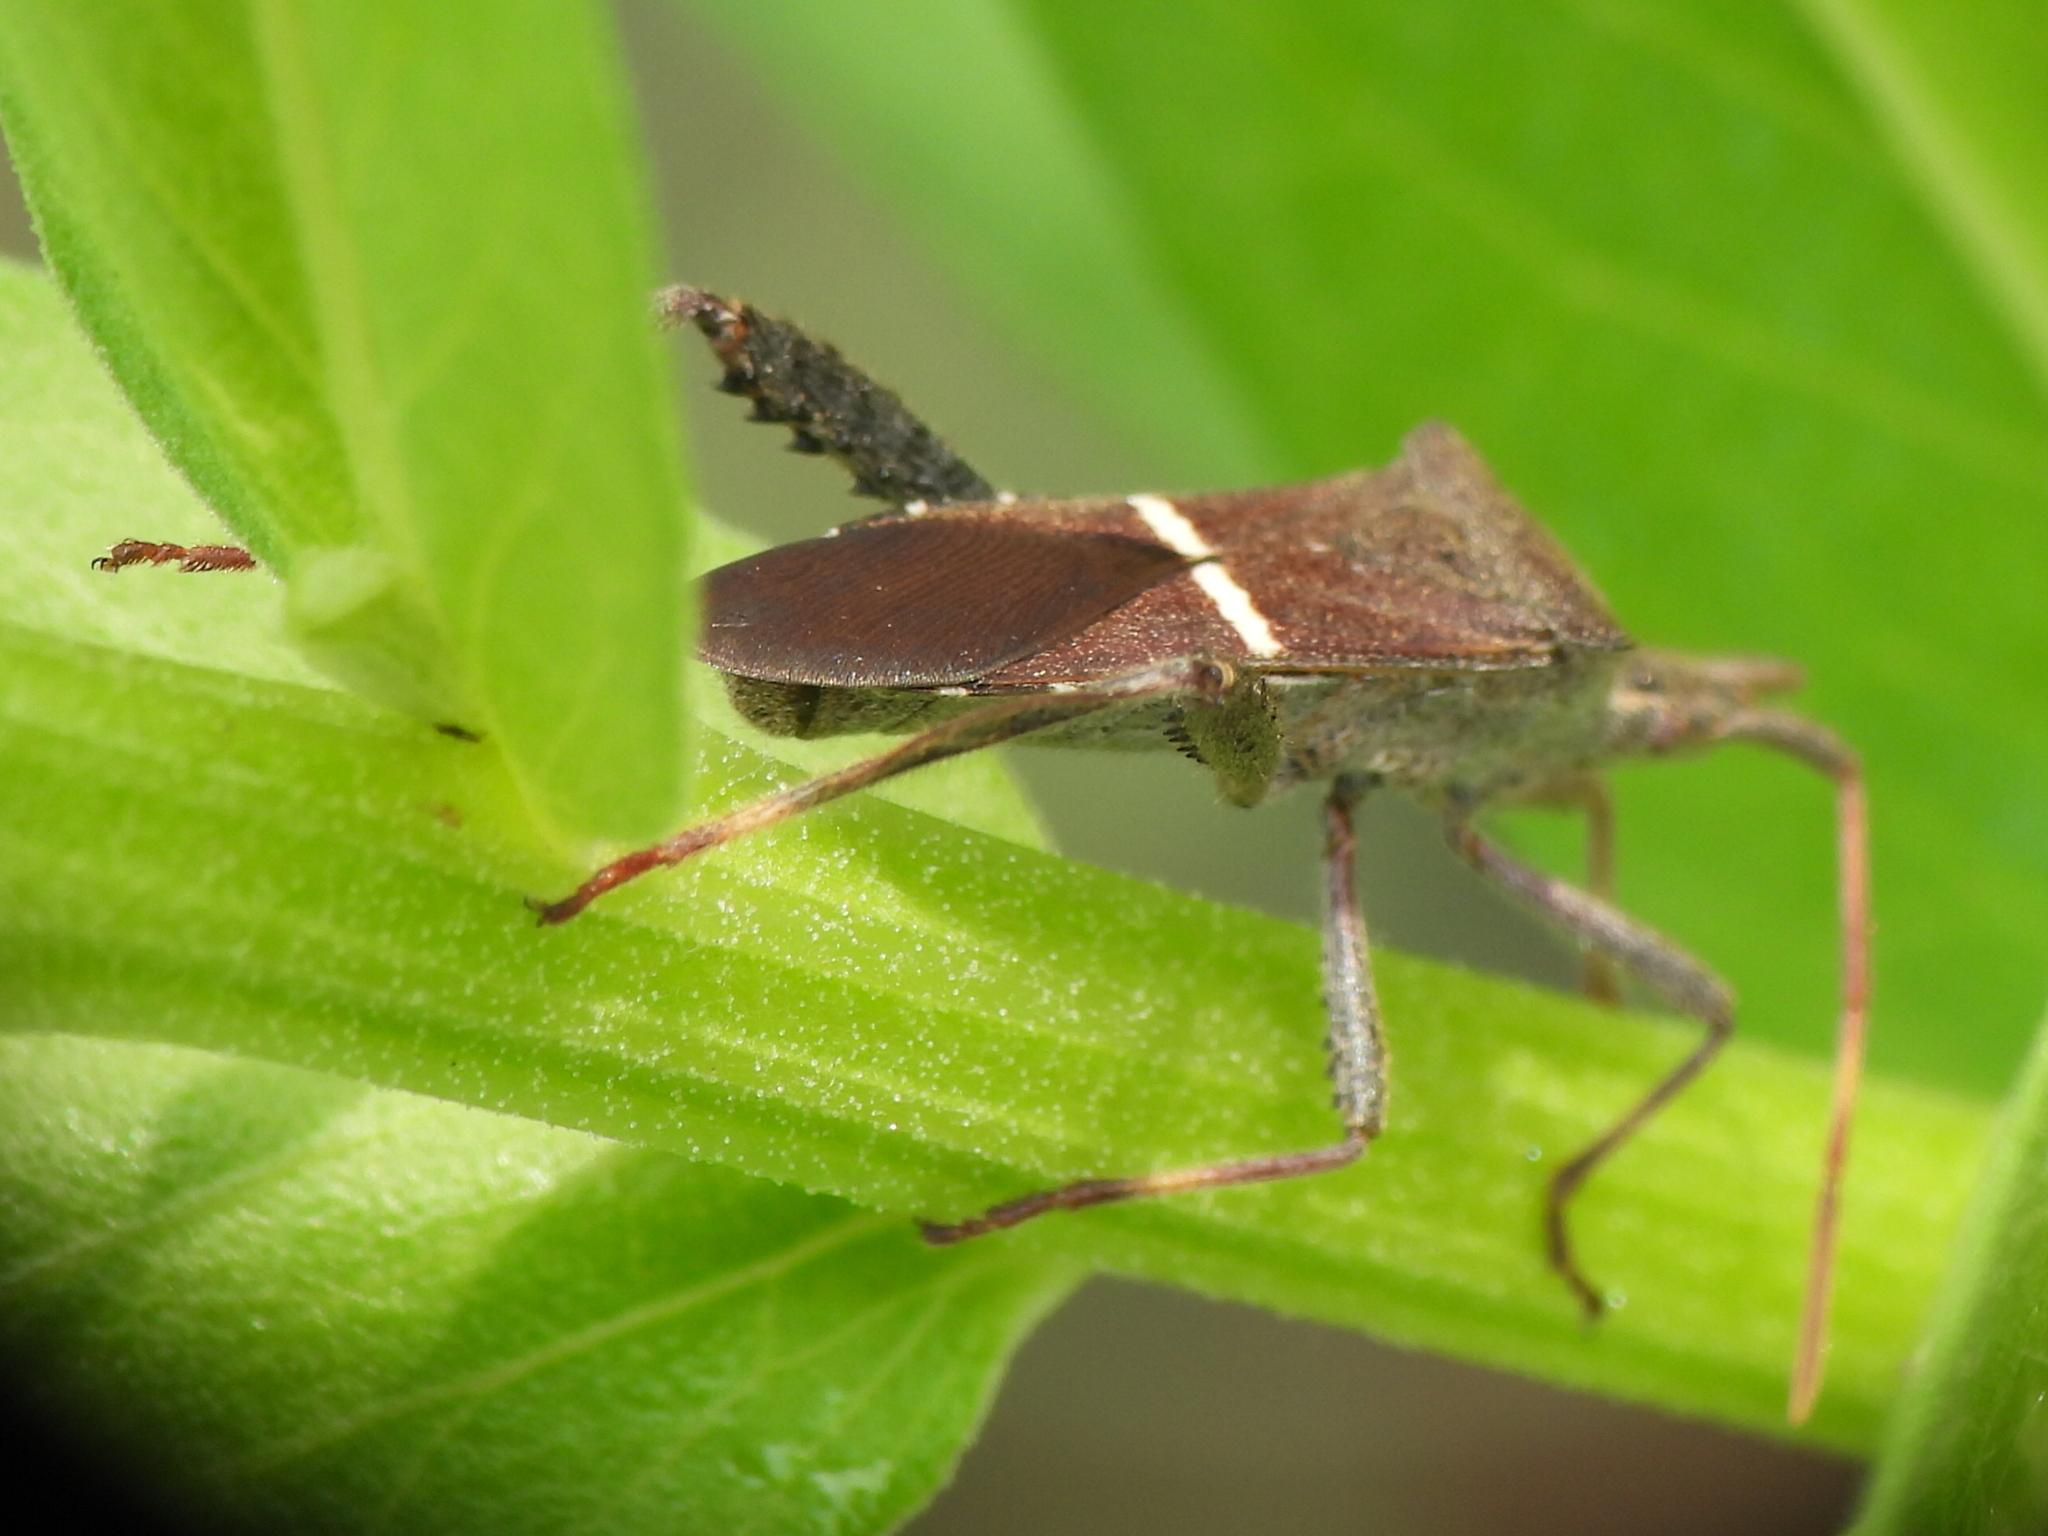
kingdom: Animalia
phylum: Arthropoda
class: Insecta
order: Hemiptera
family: Coreidae
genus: Leptoglossus
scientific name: Leptoglossus phyllopus
